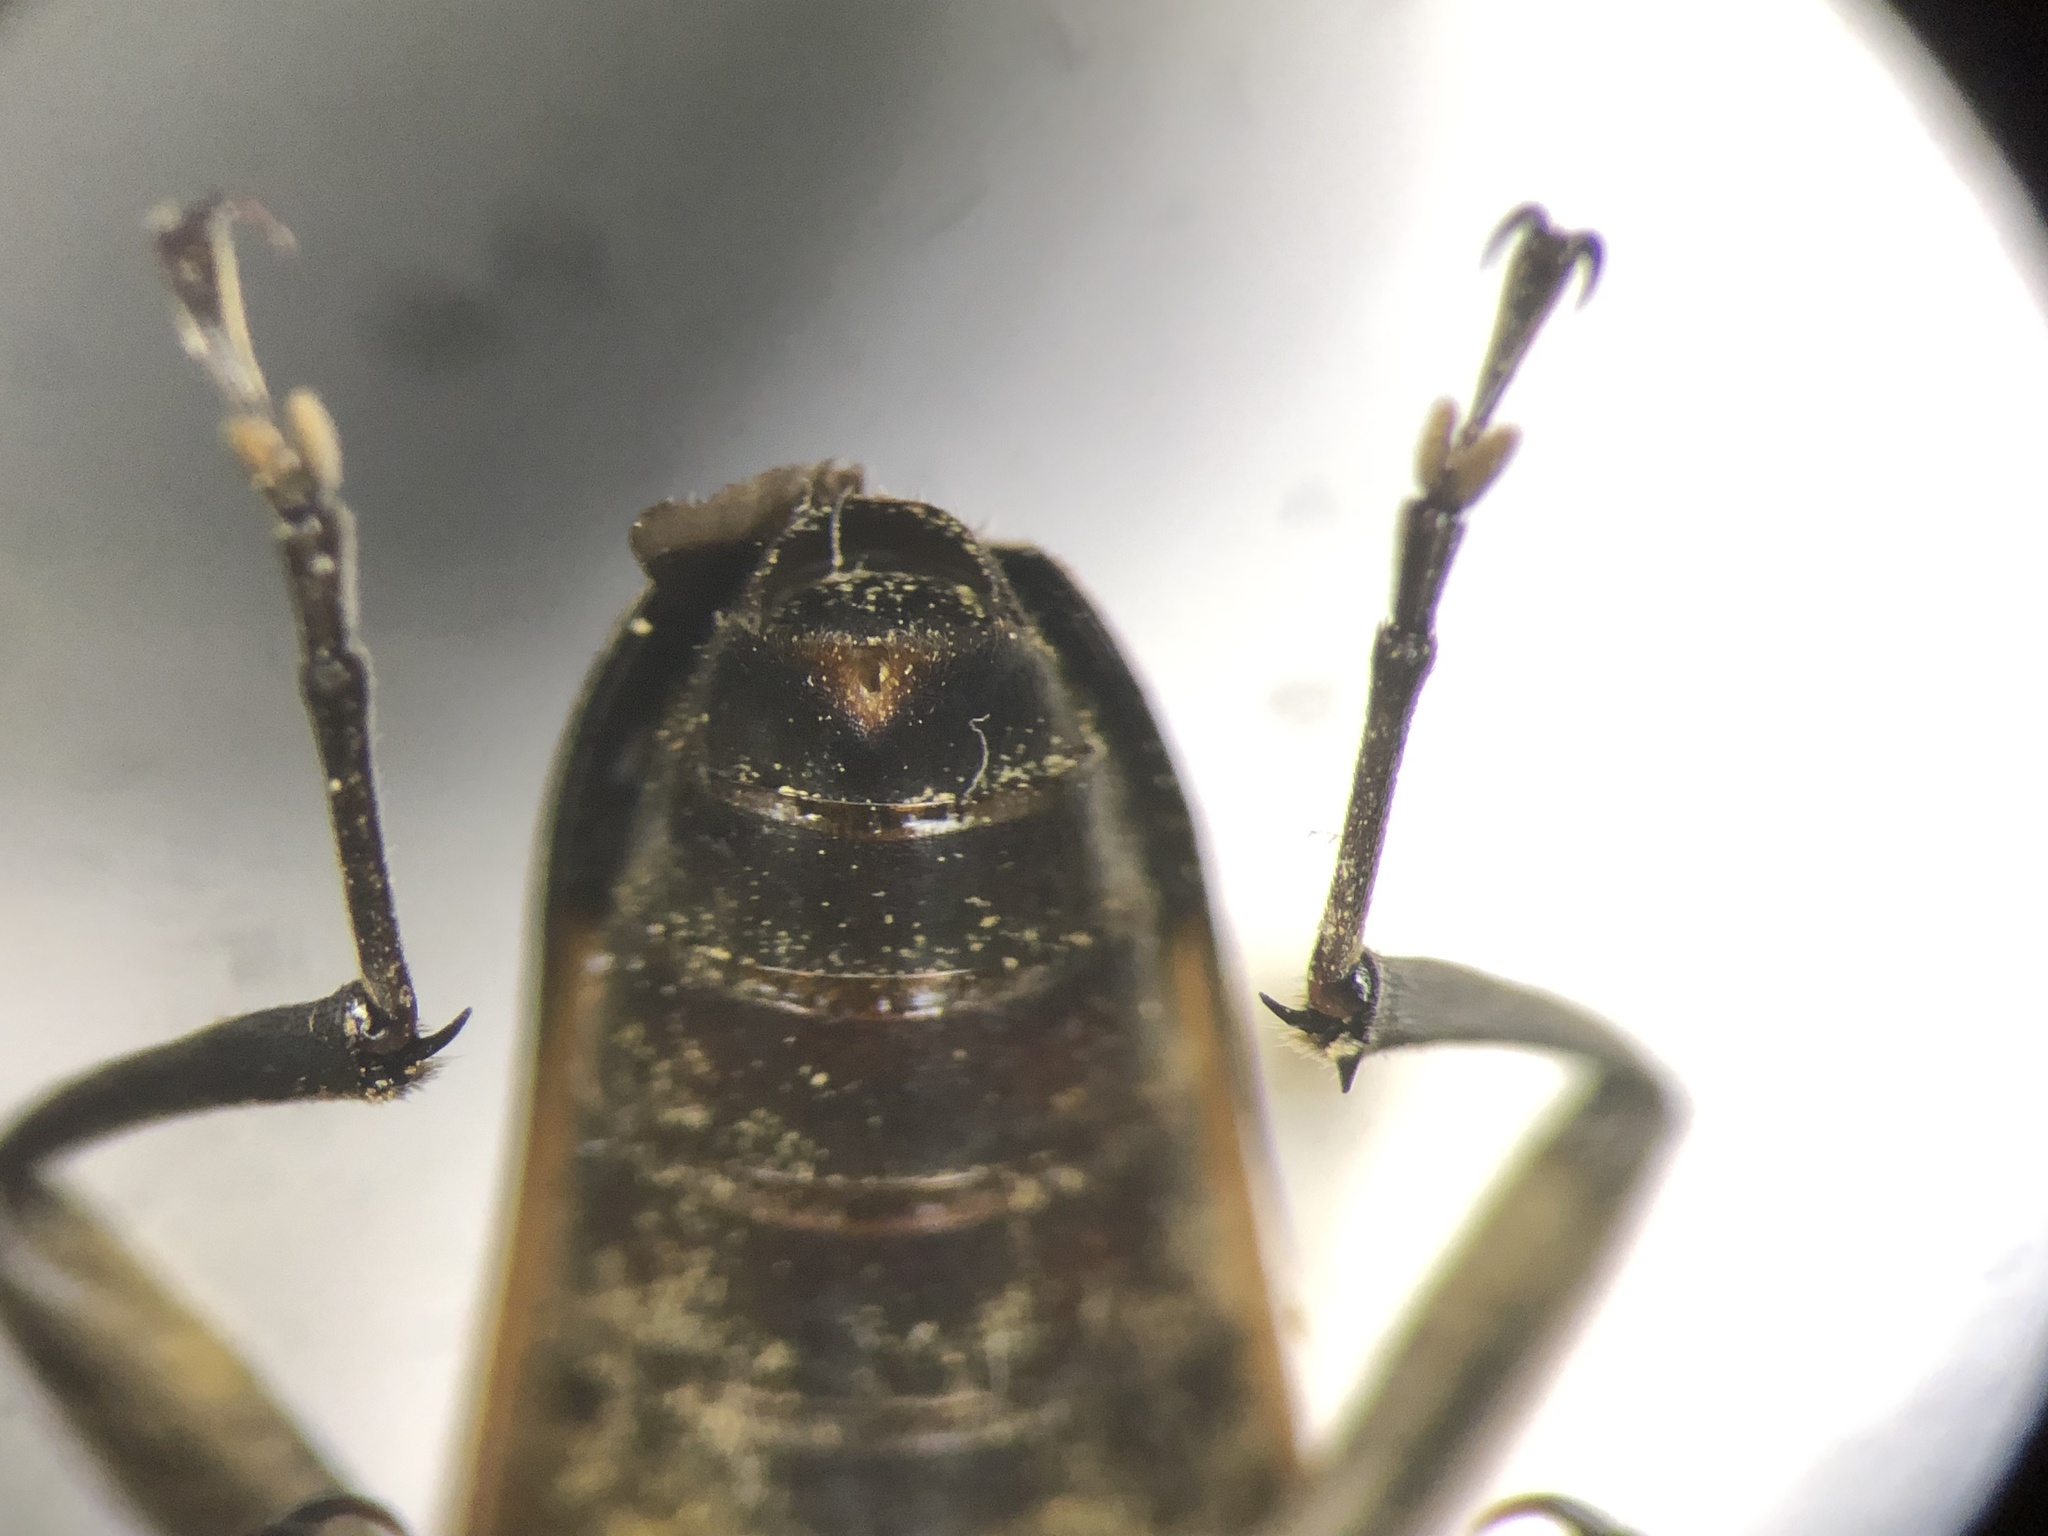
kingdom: Animalia
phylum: Arthropoda
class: Insecta
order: Coleoptera
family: Cerambycidae
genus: Trigonarthris
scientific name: Trigonarthris proxima
